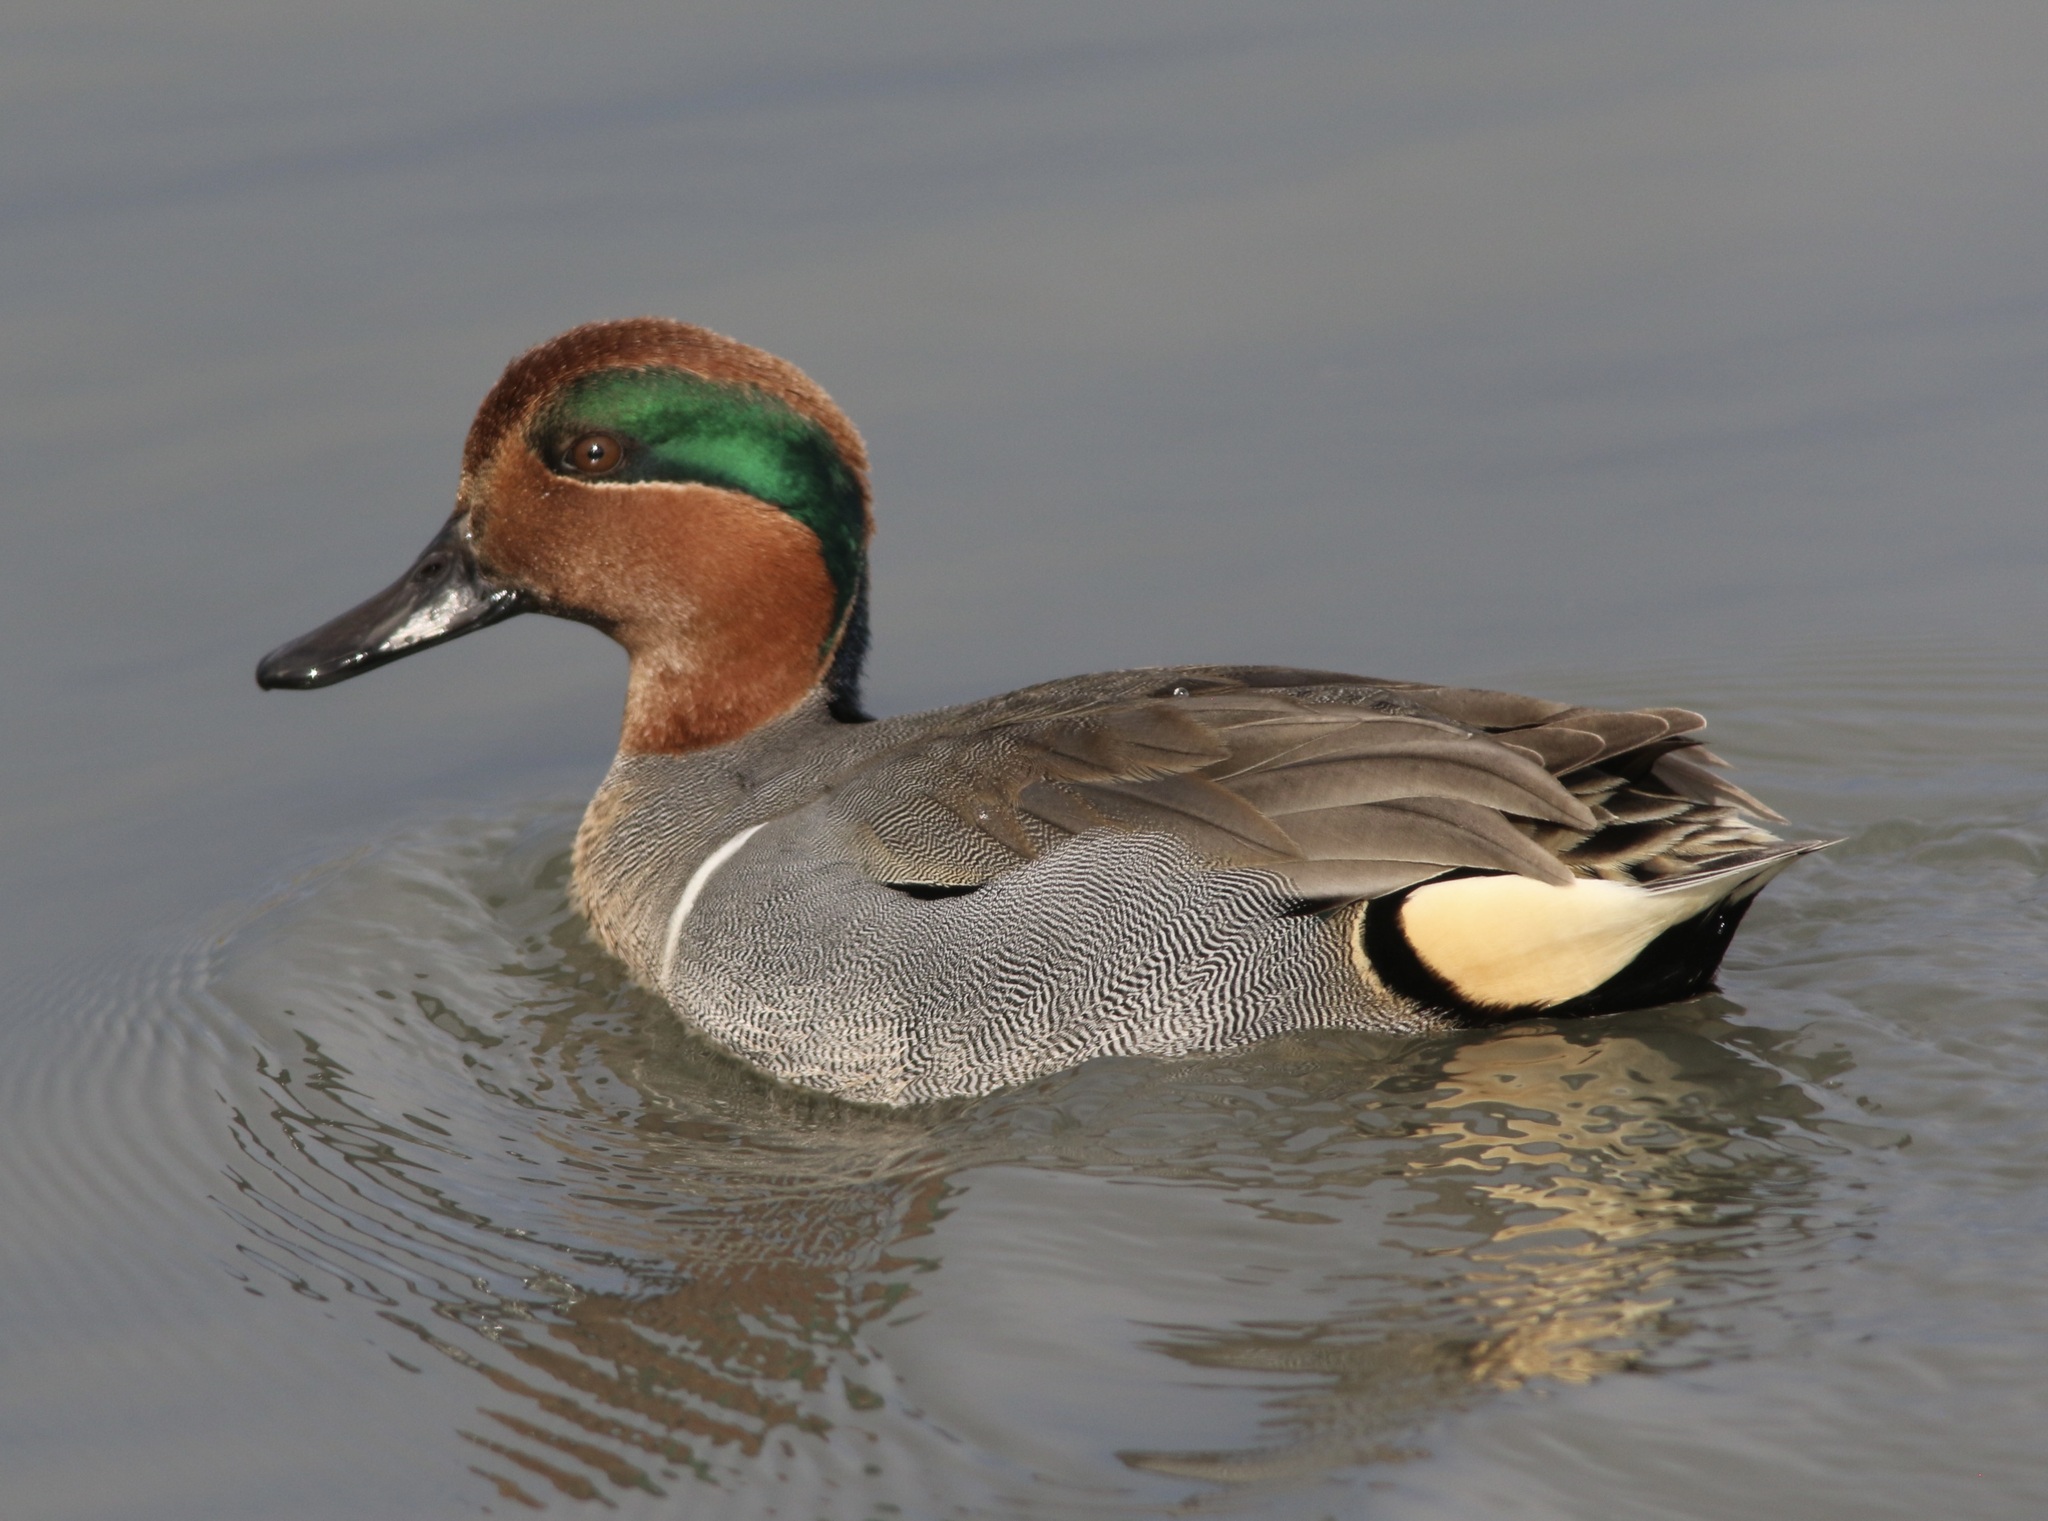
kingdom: Animalia
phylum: Chordata
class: Aves
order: Anseriformes
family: Anatidae
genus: Anas
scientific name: Anas crecca
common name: Eurasian teal
